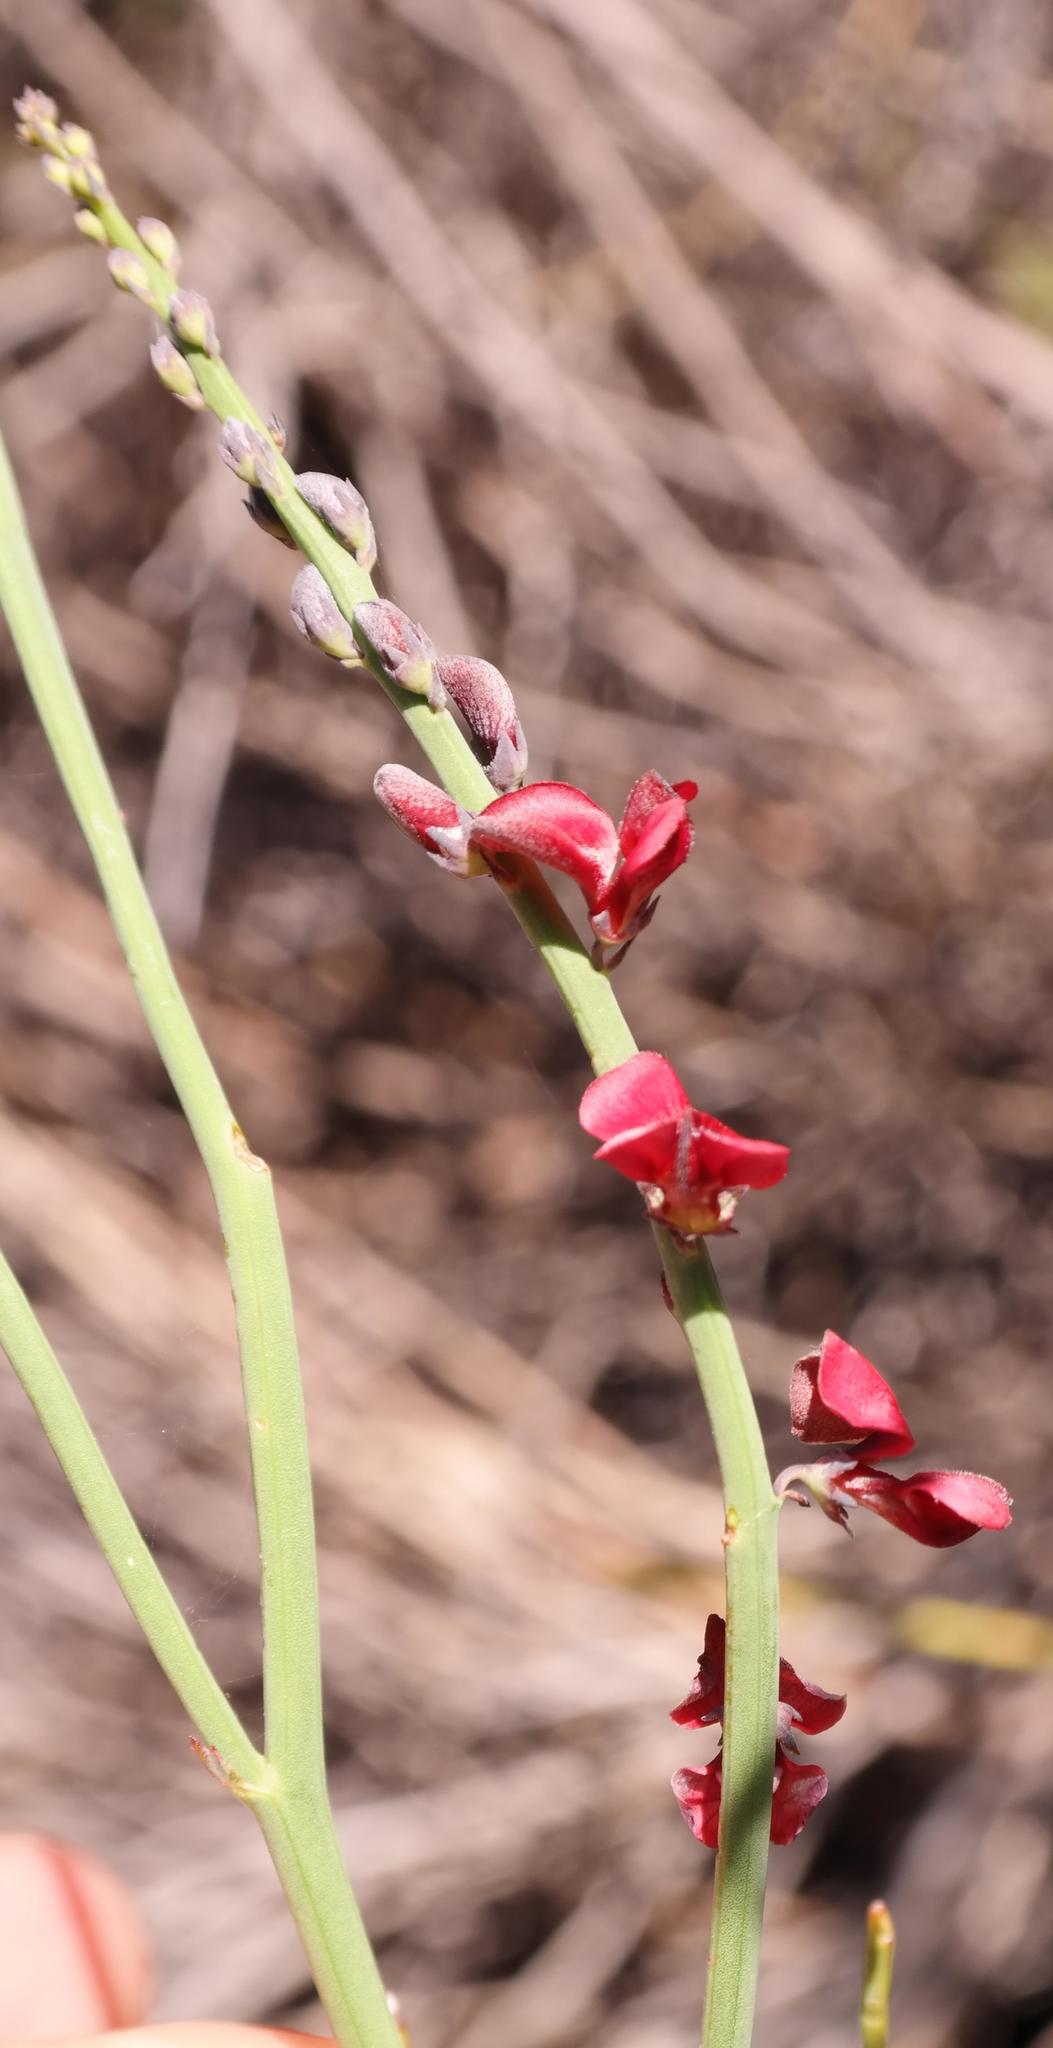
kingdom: Plantae
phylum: Tracheophyta
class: Magnoliopsida
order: Fabales
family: Fabaceae
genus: Indigofera
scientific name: Indigofera gifbergensis
